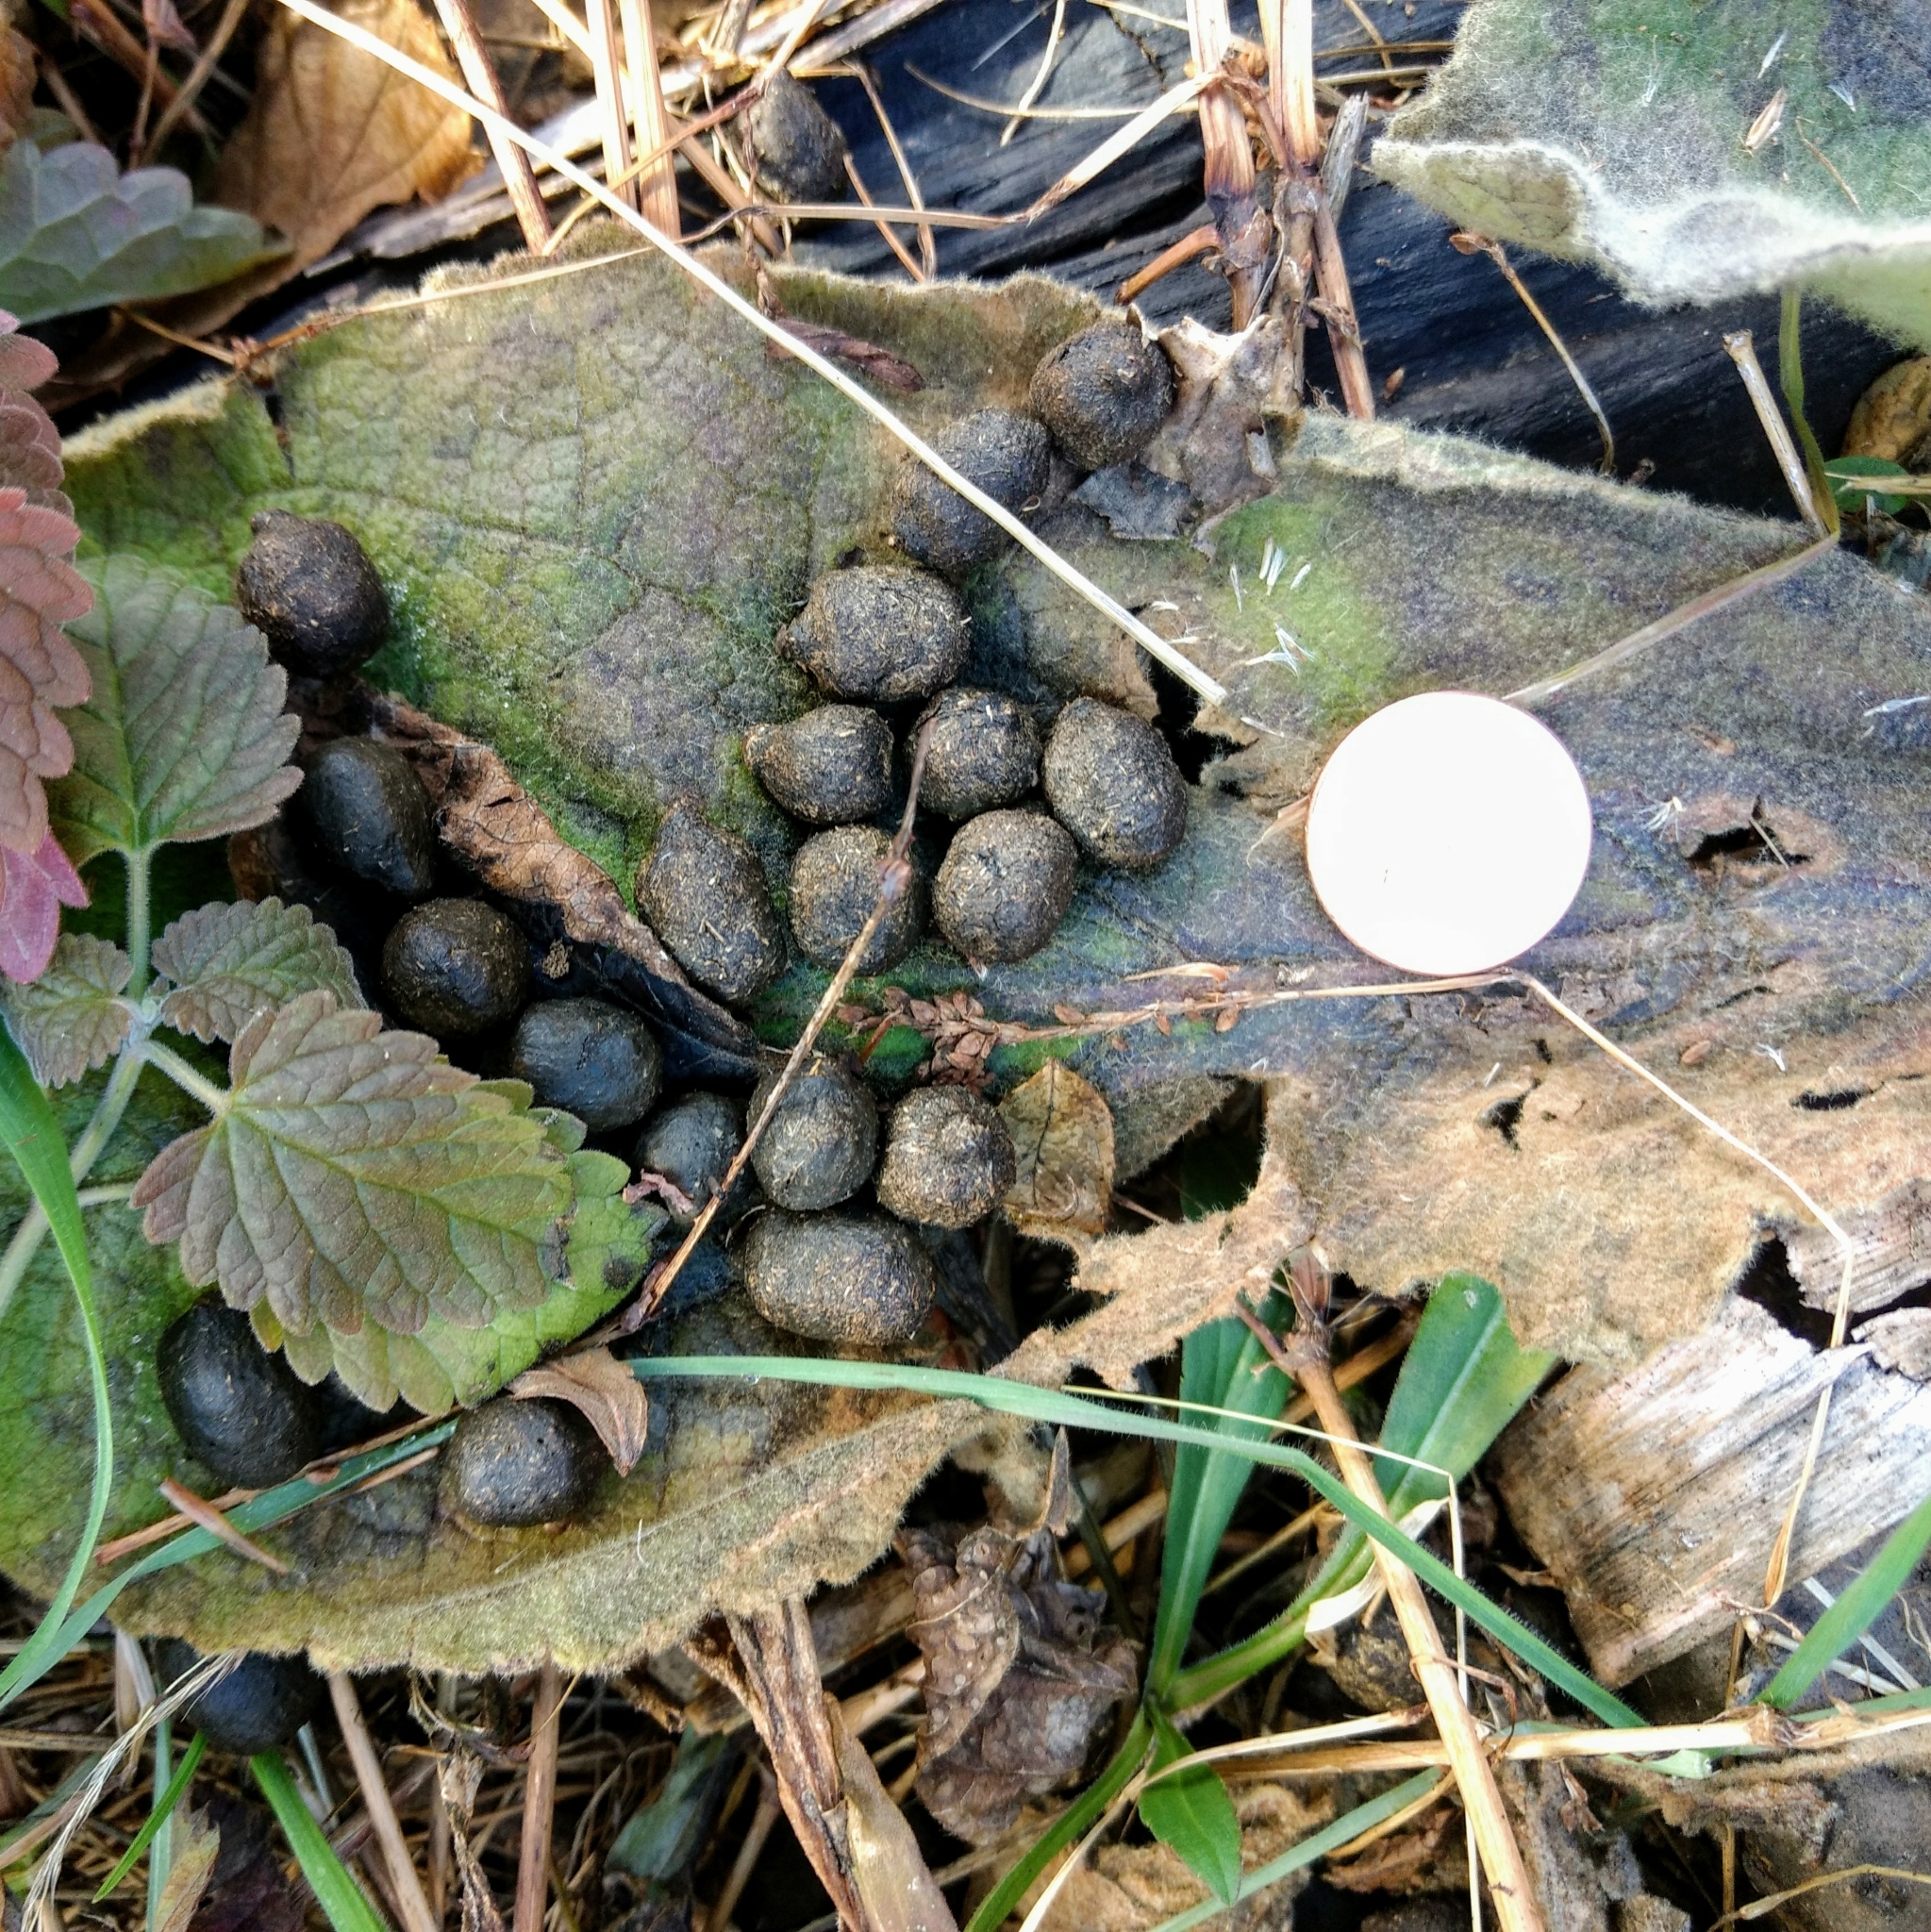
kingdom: Animalia
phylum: Chordata
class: Mammalia
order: Lagomorpha
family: Leporidae
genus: Sylvilagus
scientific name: Sylvilagus floridanus
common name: Eastern cottontail
